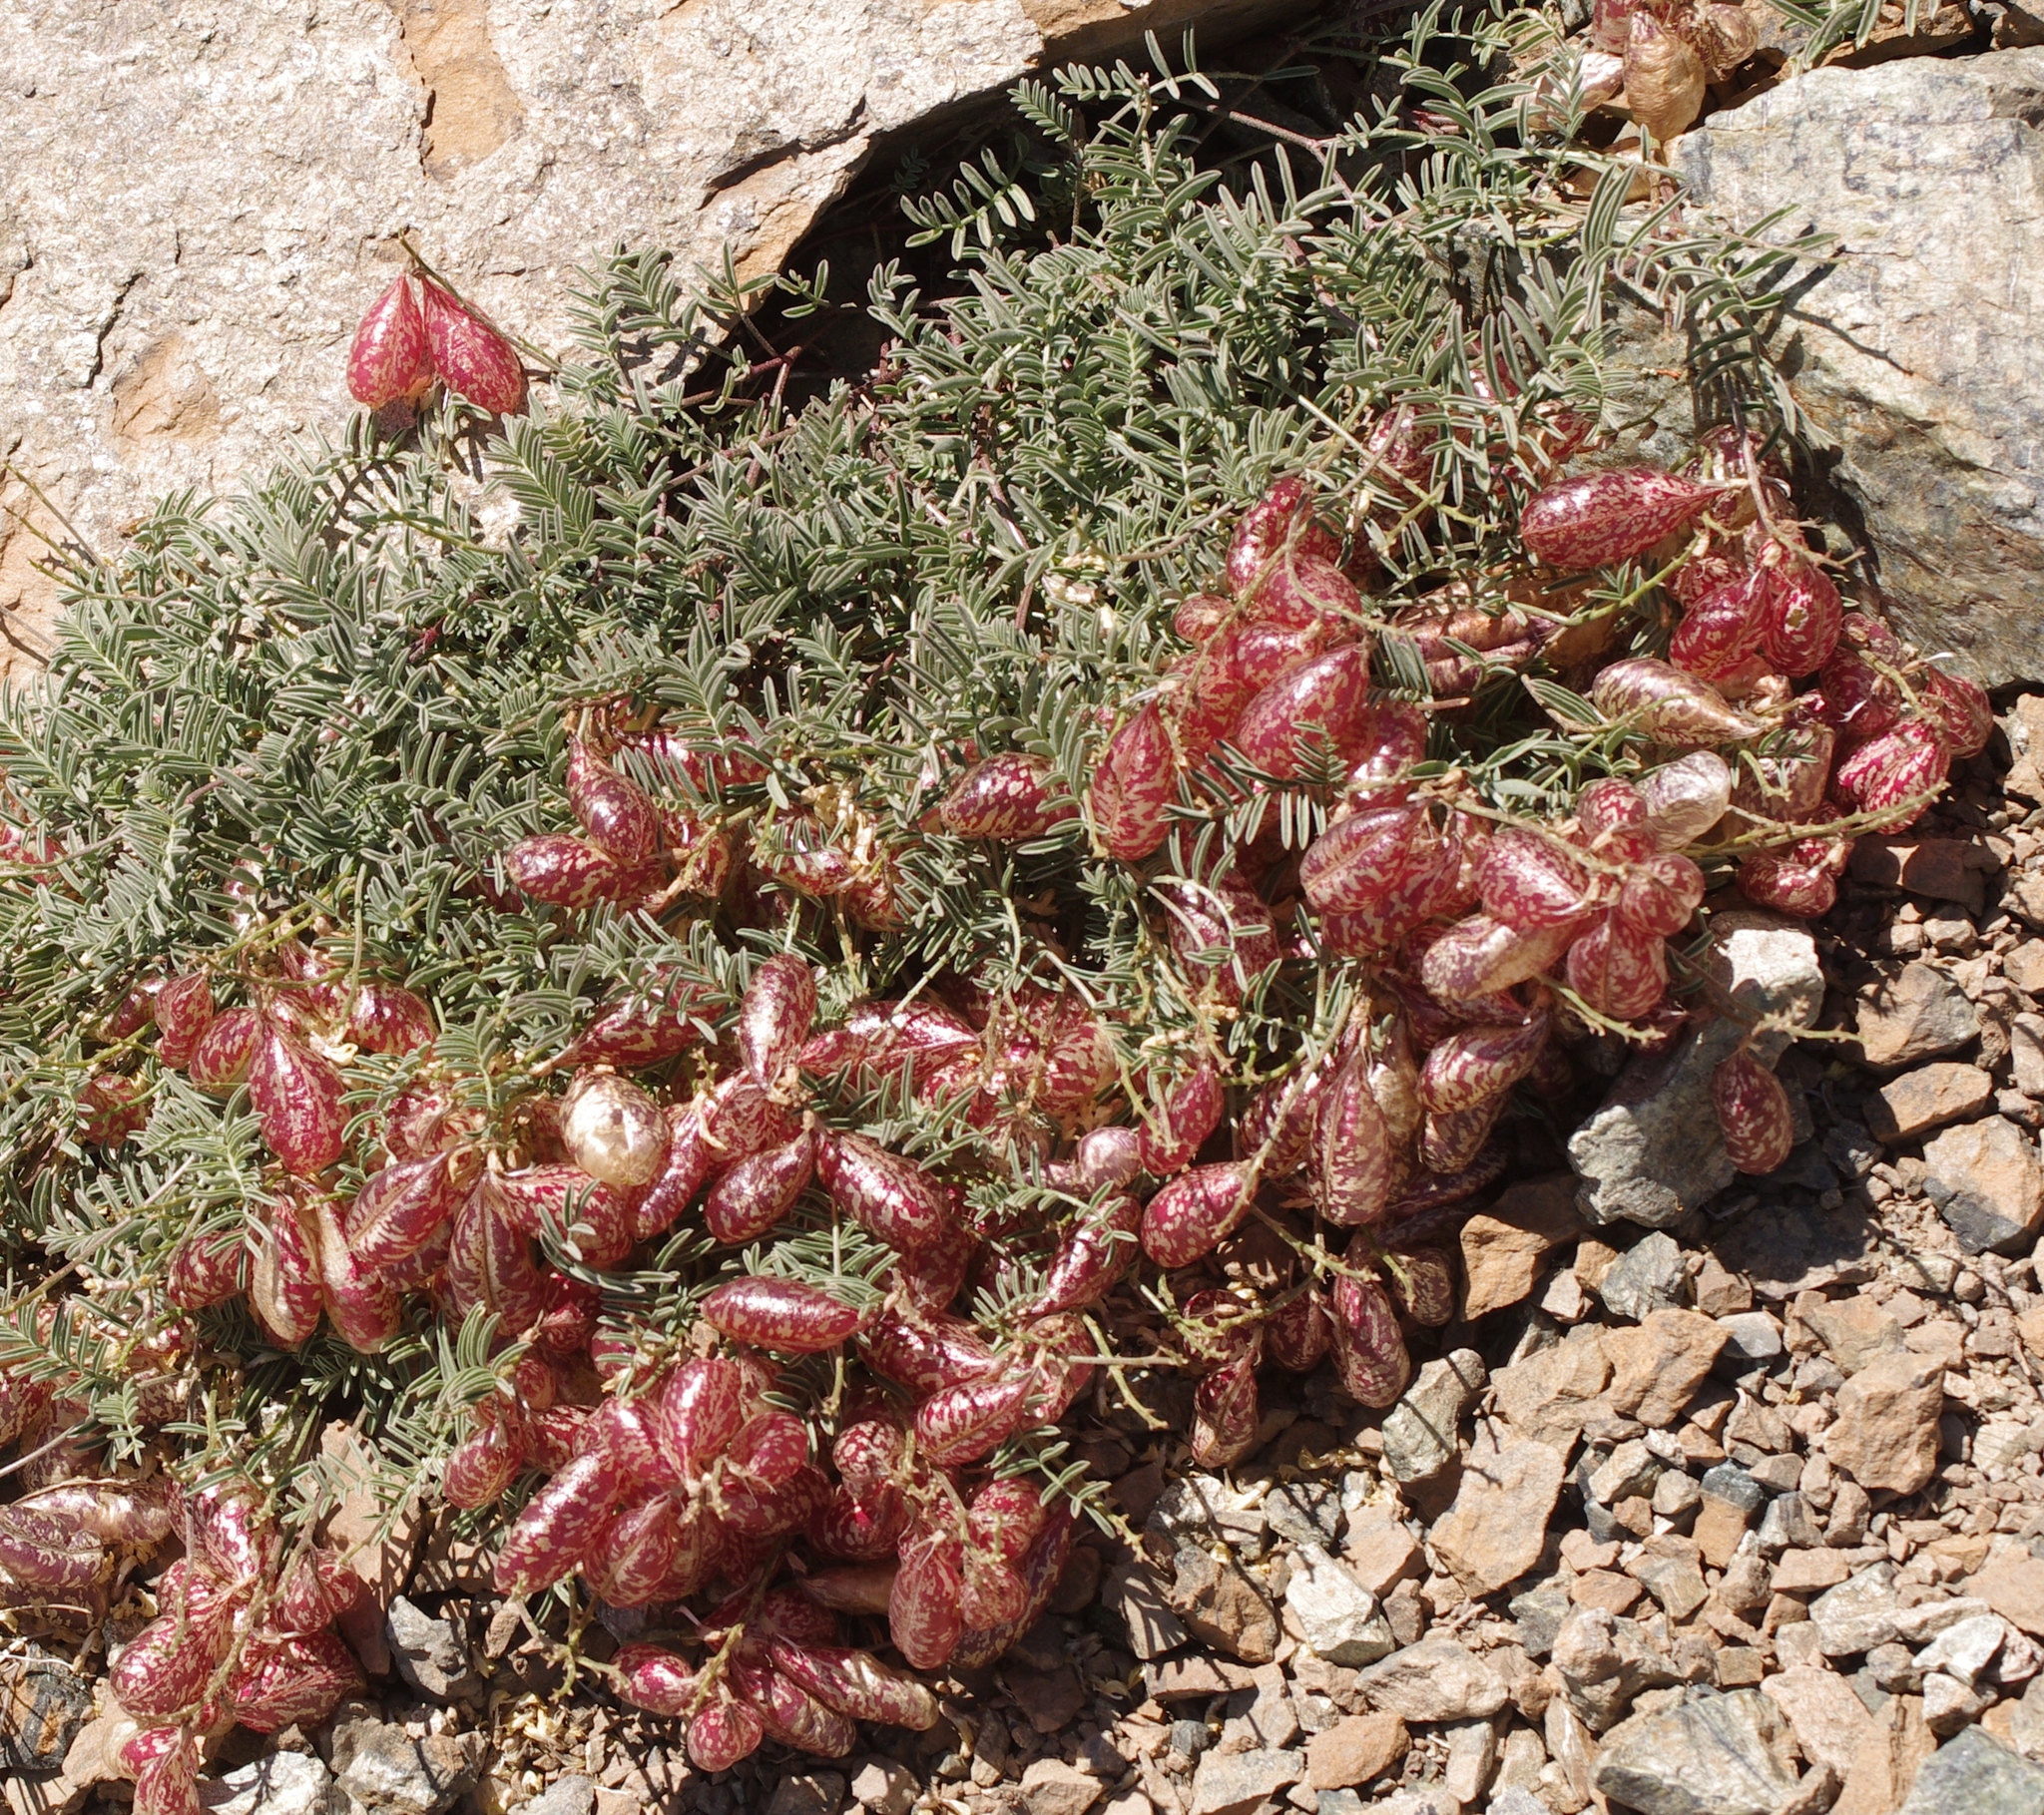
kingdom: Plantae
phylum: Tracheophyta
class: Magnoliopsida
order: Fabales
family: Fabaceae
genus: Astragalus
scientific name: Astragalus whitneyi
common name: Balloonpod milkvetch
